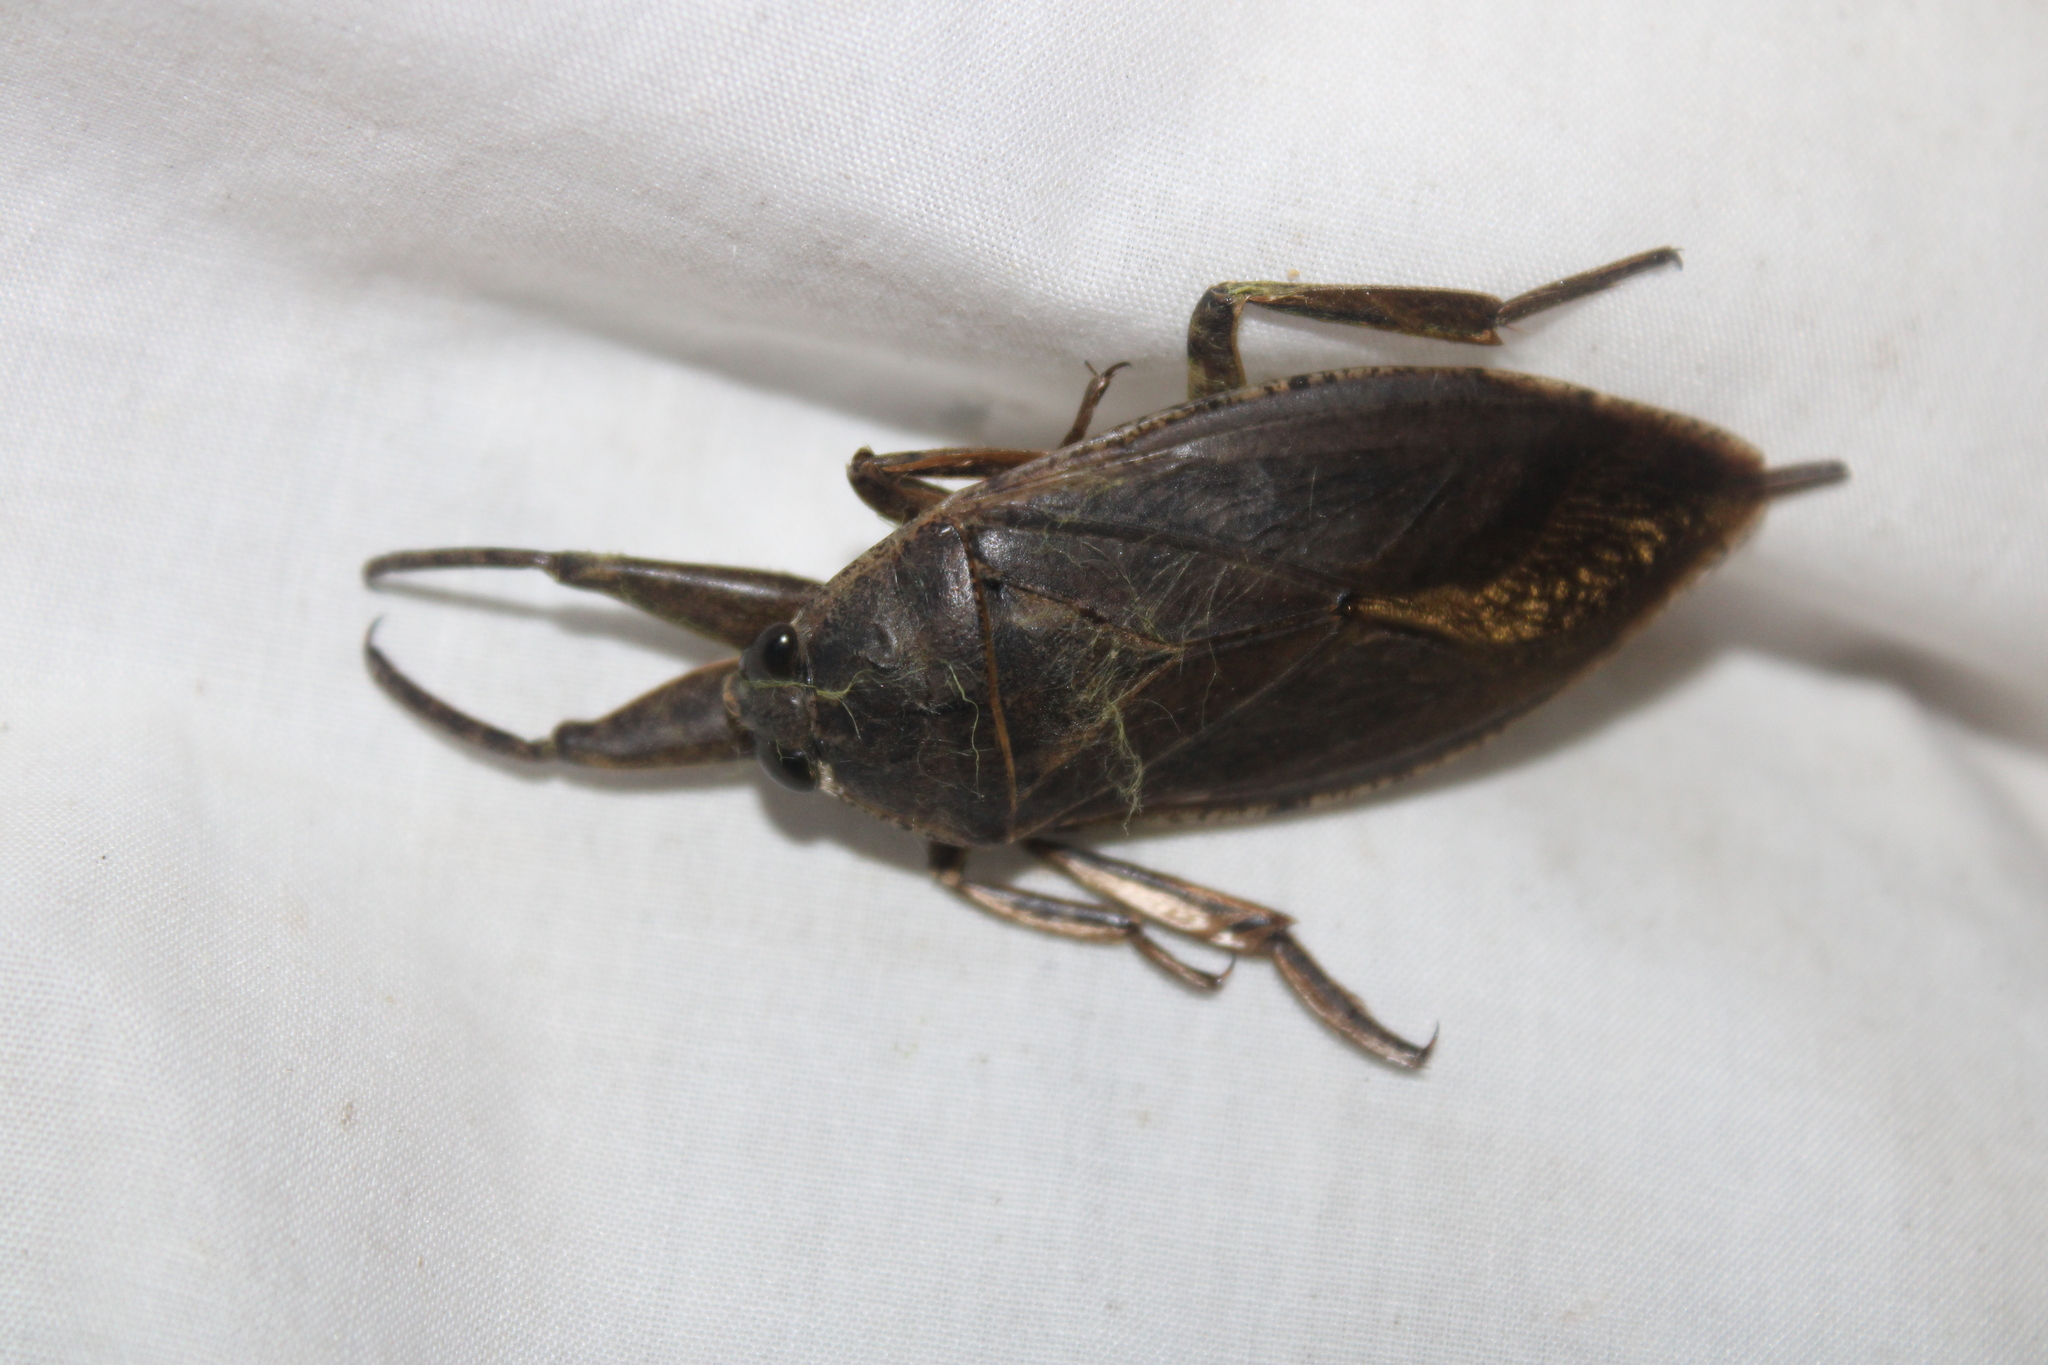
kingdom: Animalia
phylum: Arthropoda
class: Insecta
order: Hemiptera
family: Belostomatidae
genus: Lethocerus
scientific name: Lethocerus americanus
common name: Giant water bug
